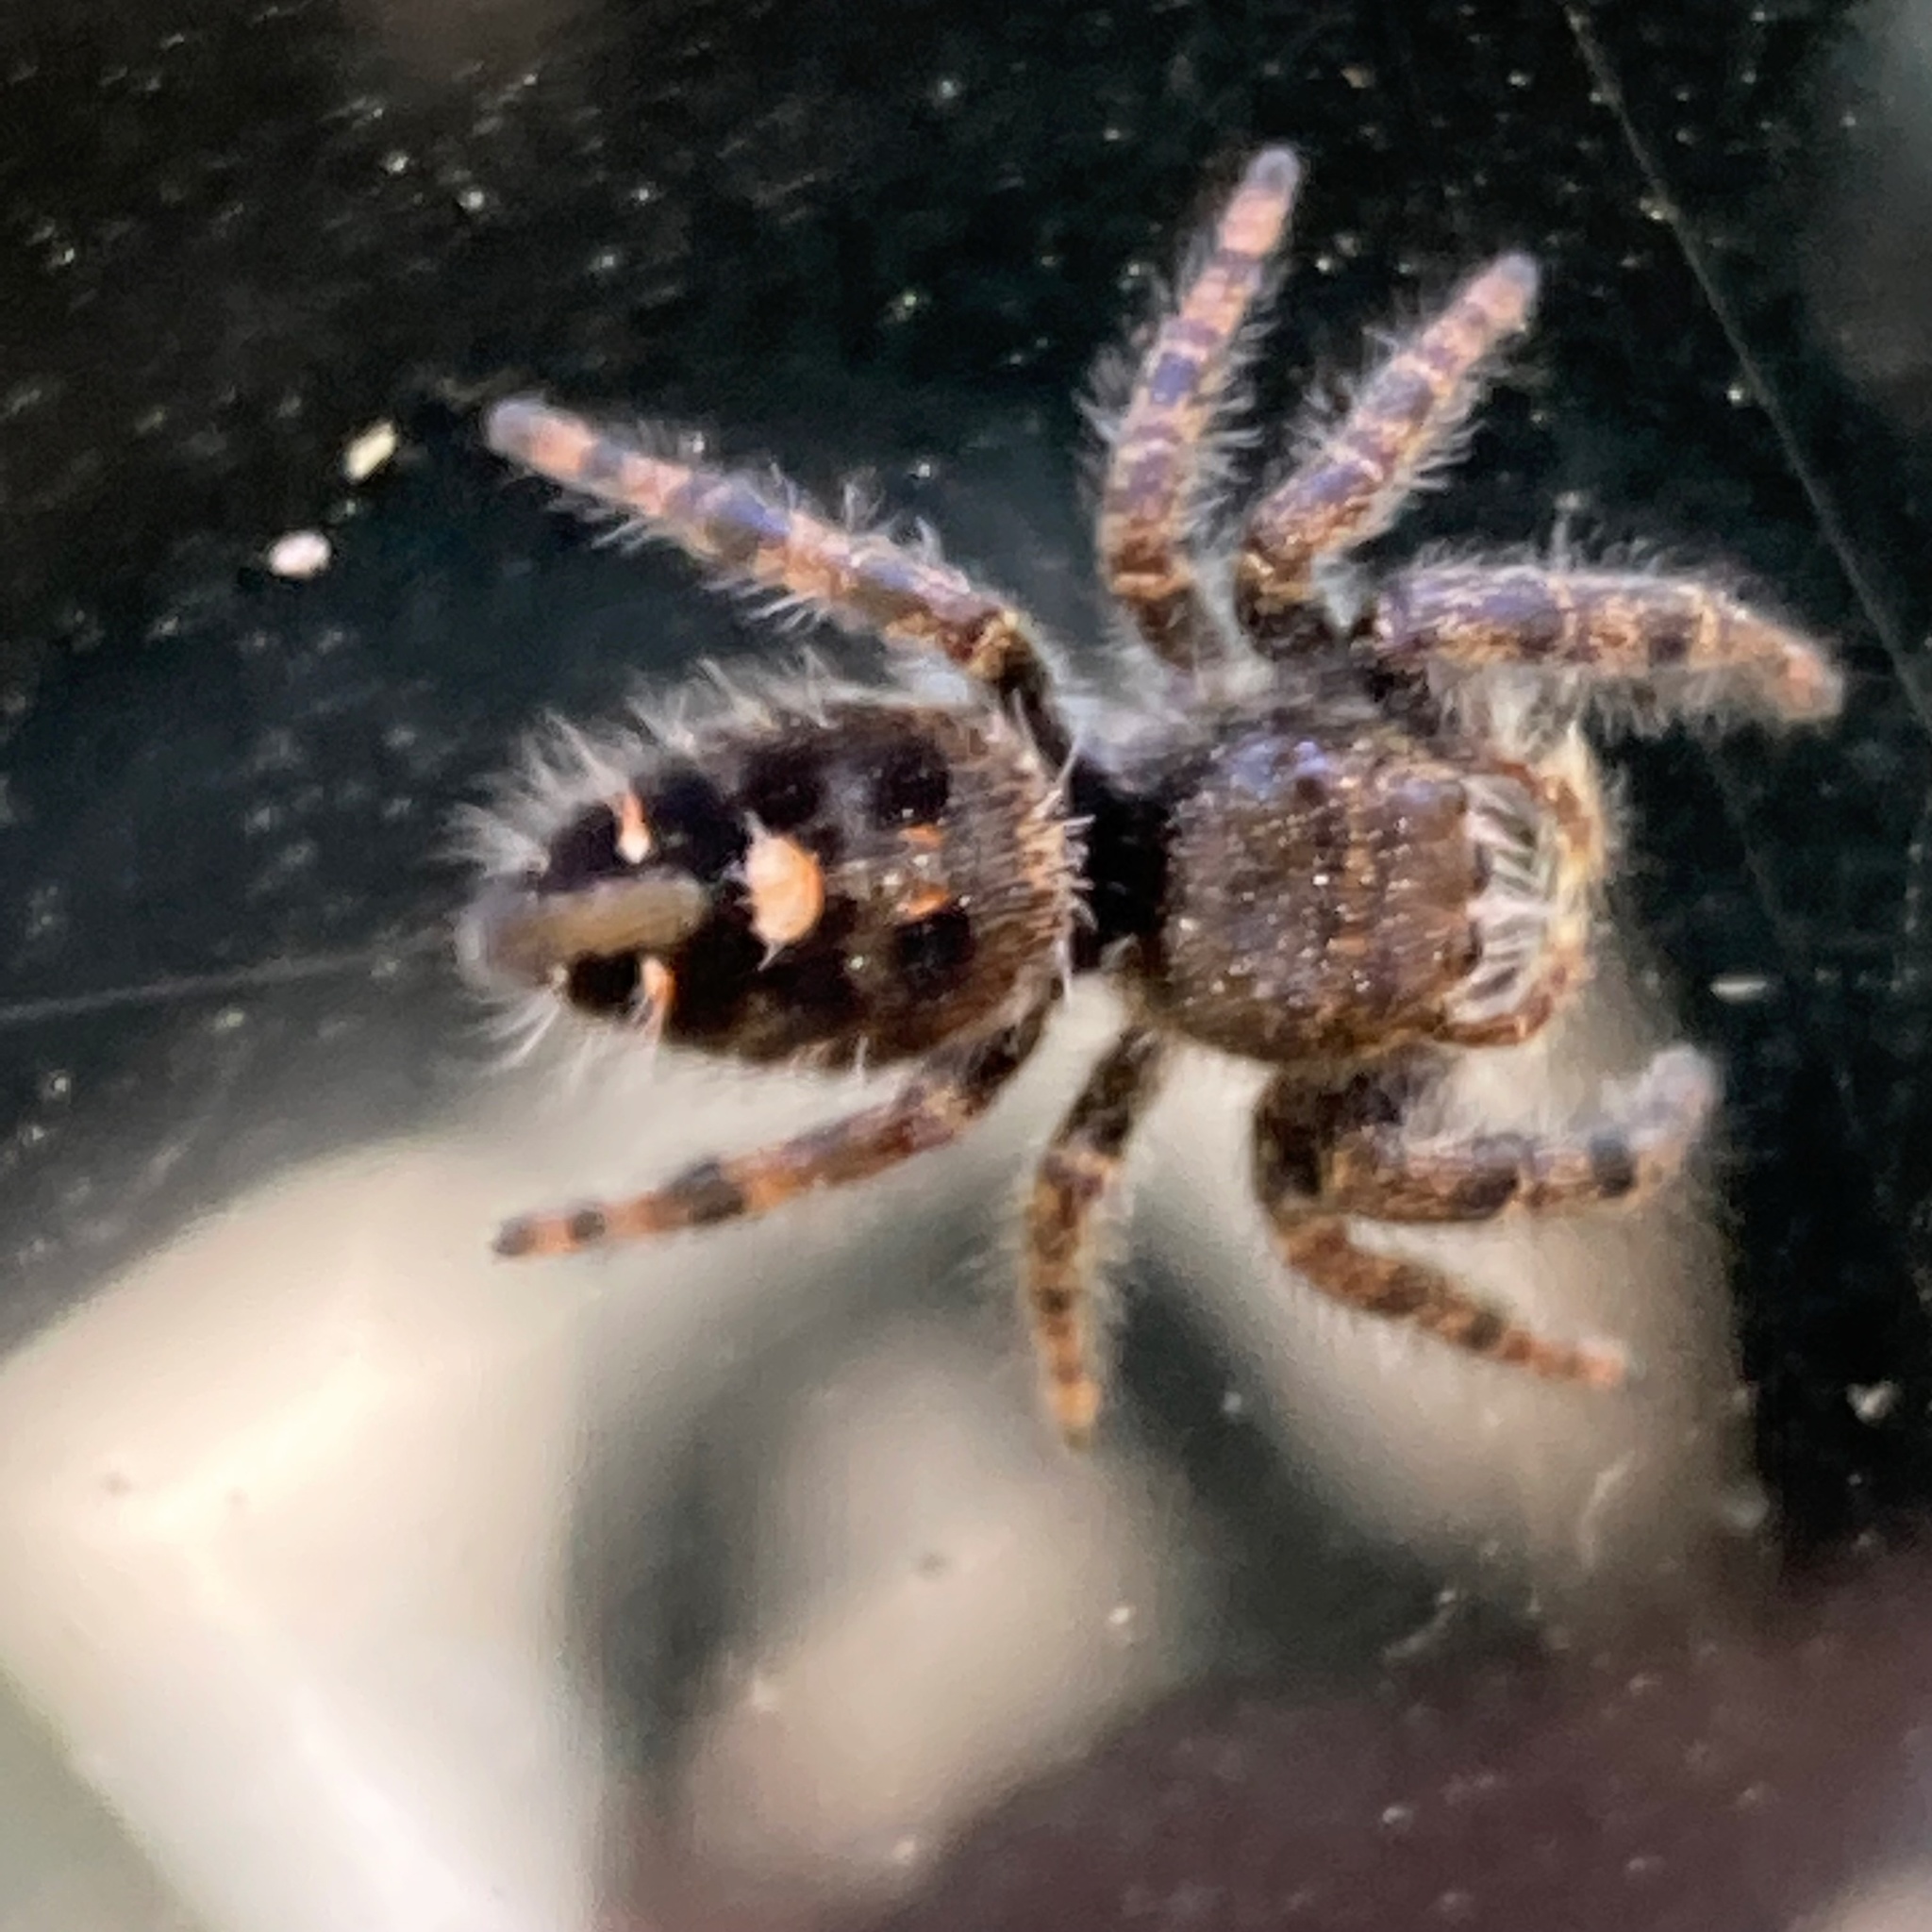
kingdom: Animalia
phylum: Arthropoda
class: Arachnida
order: Araneae
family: Salticidae
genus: Phidippus
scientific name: Phidippus audax
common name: Bold jumper
